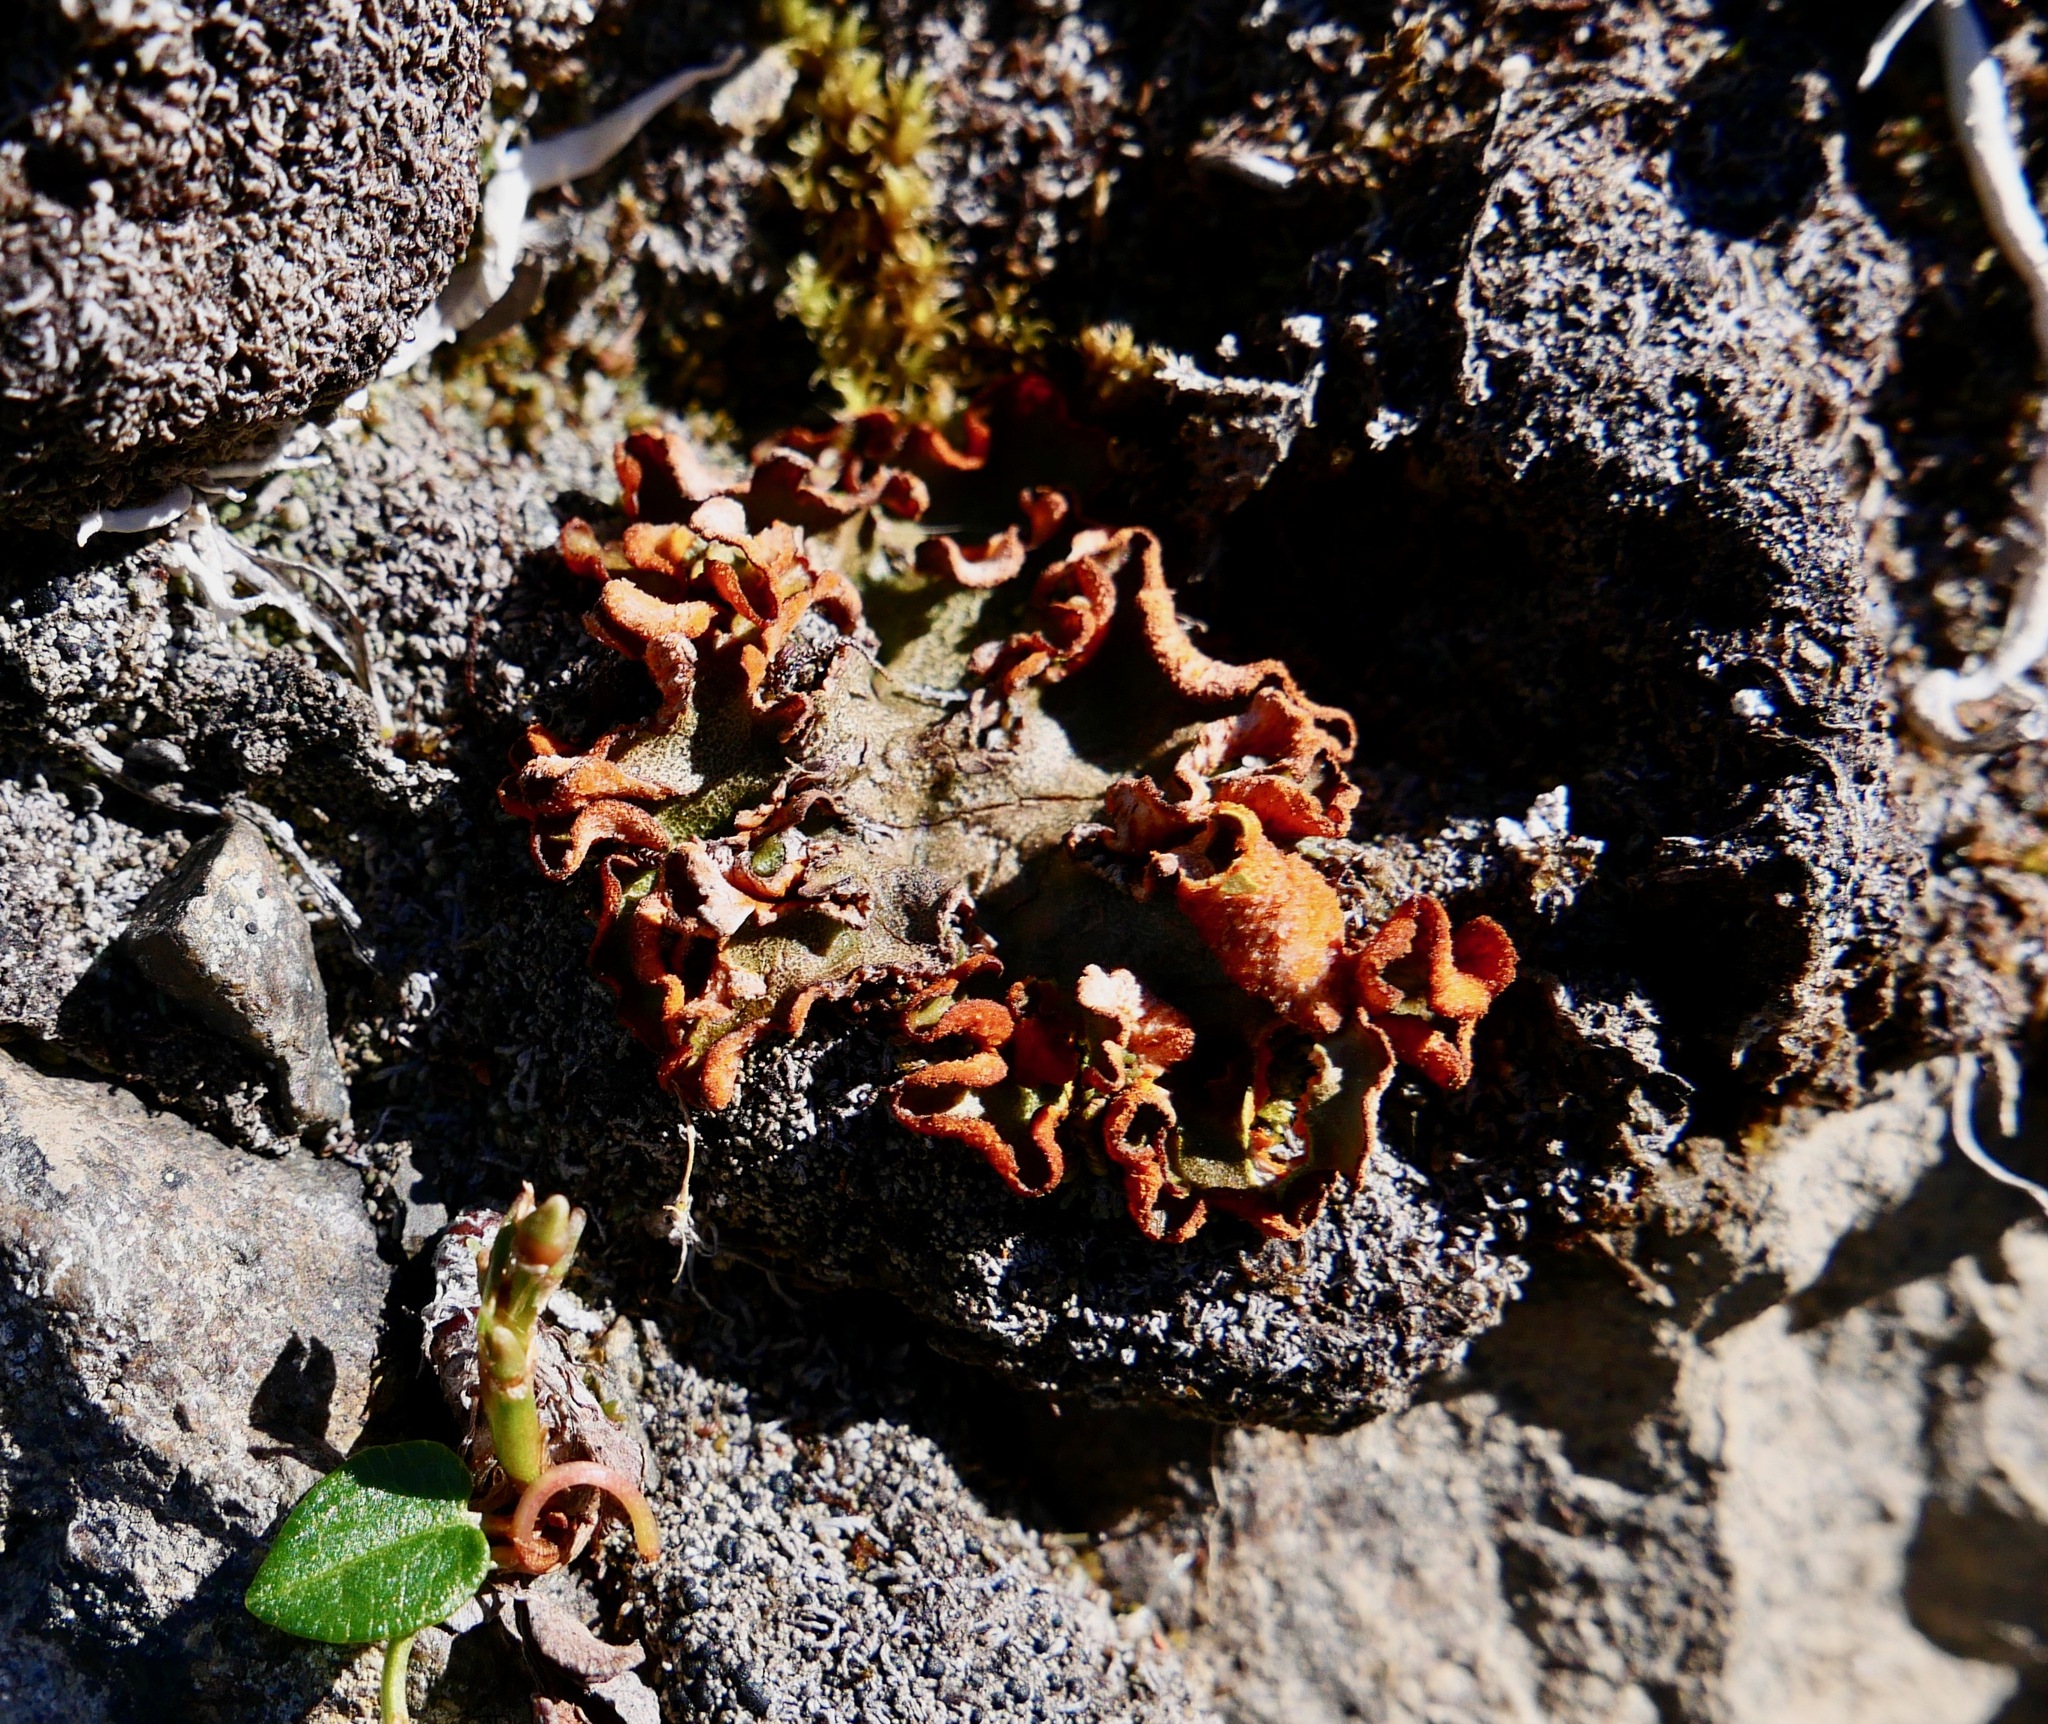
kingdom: Fungi
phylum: Ascomycota
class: Lecanoromycetes
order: Peltigerales
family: Peltigeraceae
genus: Solorina
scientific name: Solorina crocea
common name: Mountain saffron
